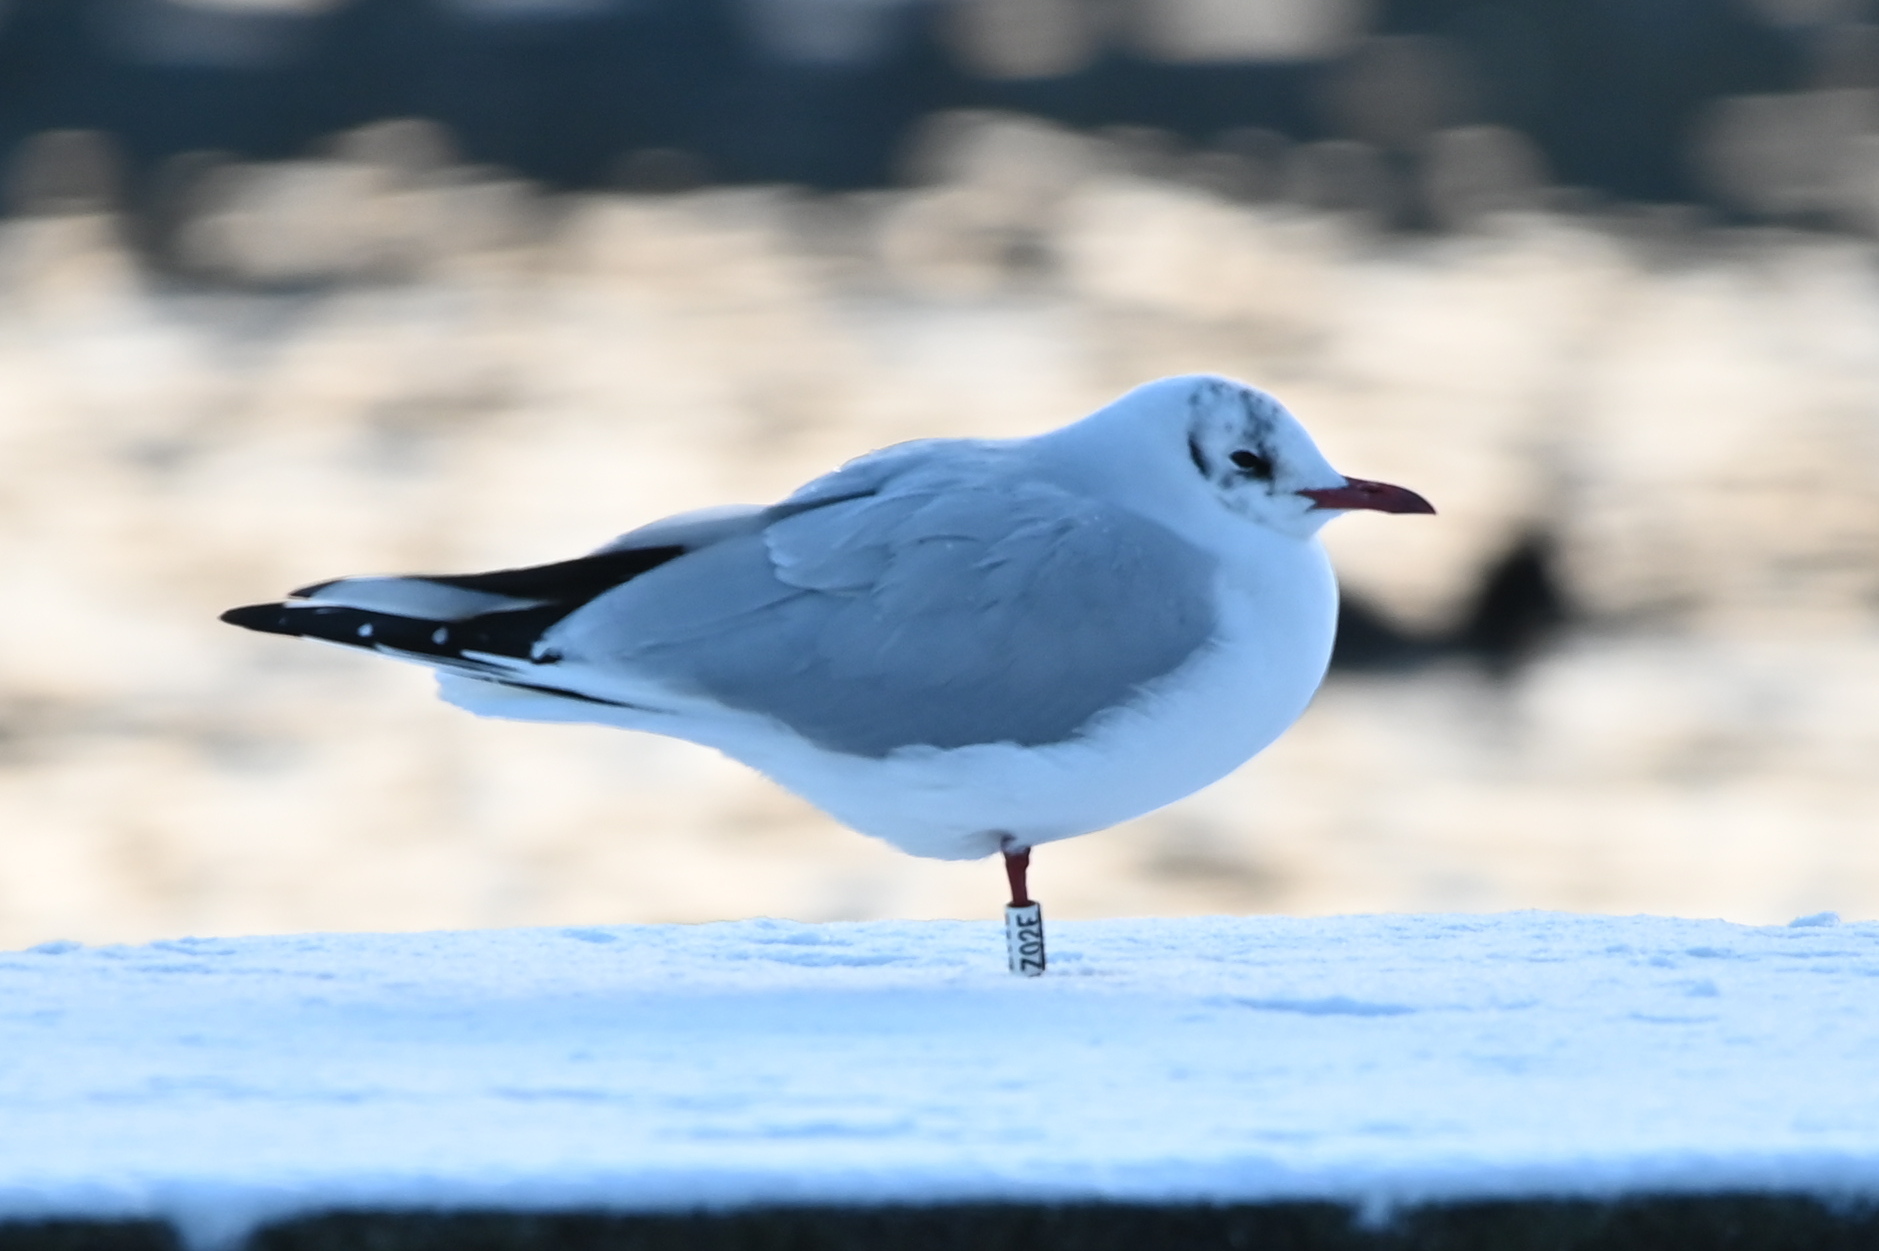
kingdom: Animalia
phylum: Chordata
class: Aves
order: Charadriiformes
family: Laridae
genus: Chroicocephalus
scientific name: Chroicocephalus ridibundus
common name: Black-headed gull
